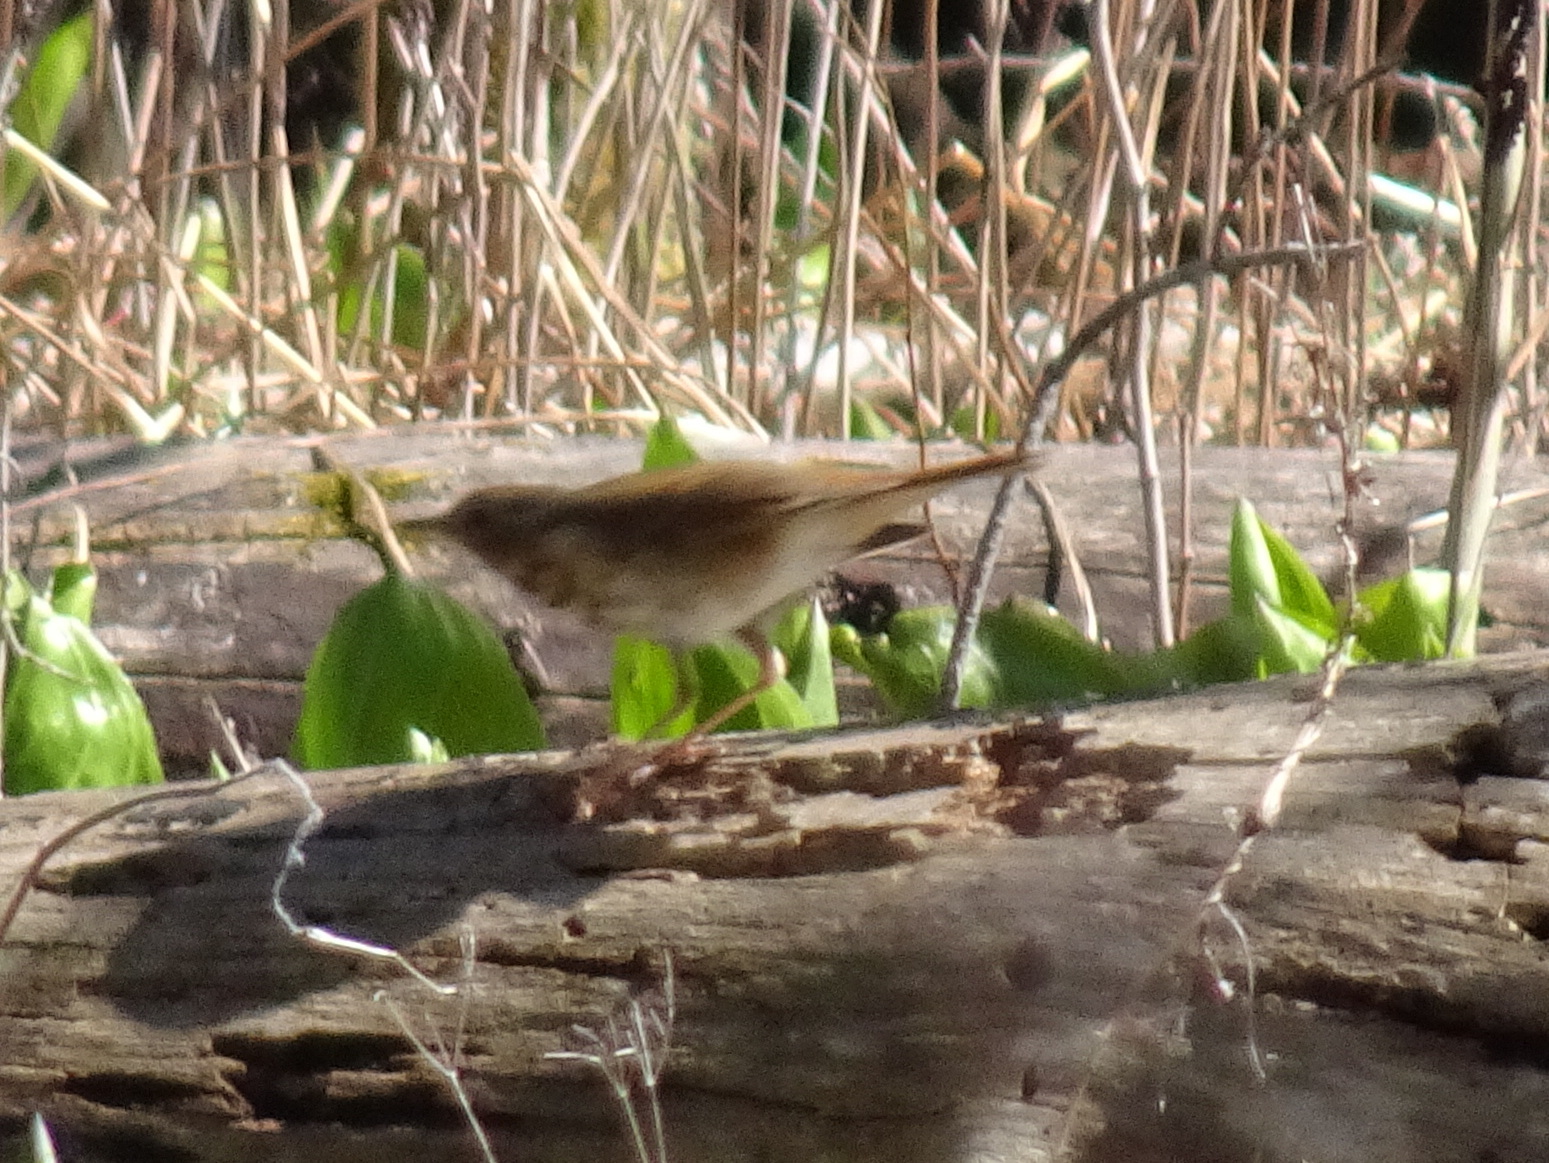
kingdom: Animalia
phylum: Chordata
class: Aves
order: Passeriformes
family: Turdidae
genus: Catharus
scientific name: Catharus guttatus
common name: Hermit thrush
